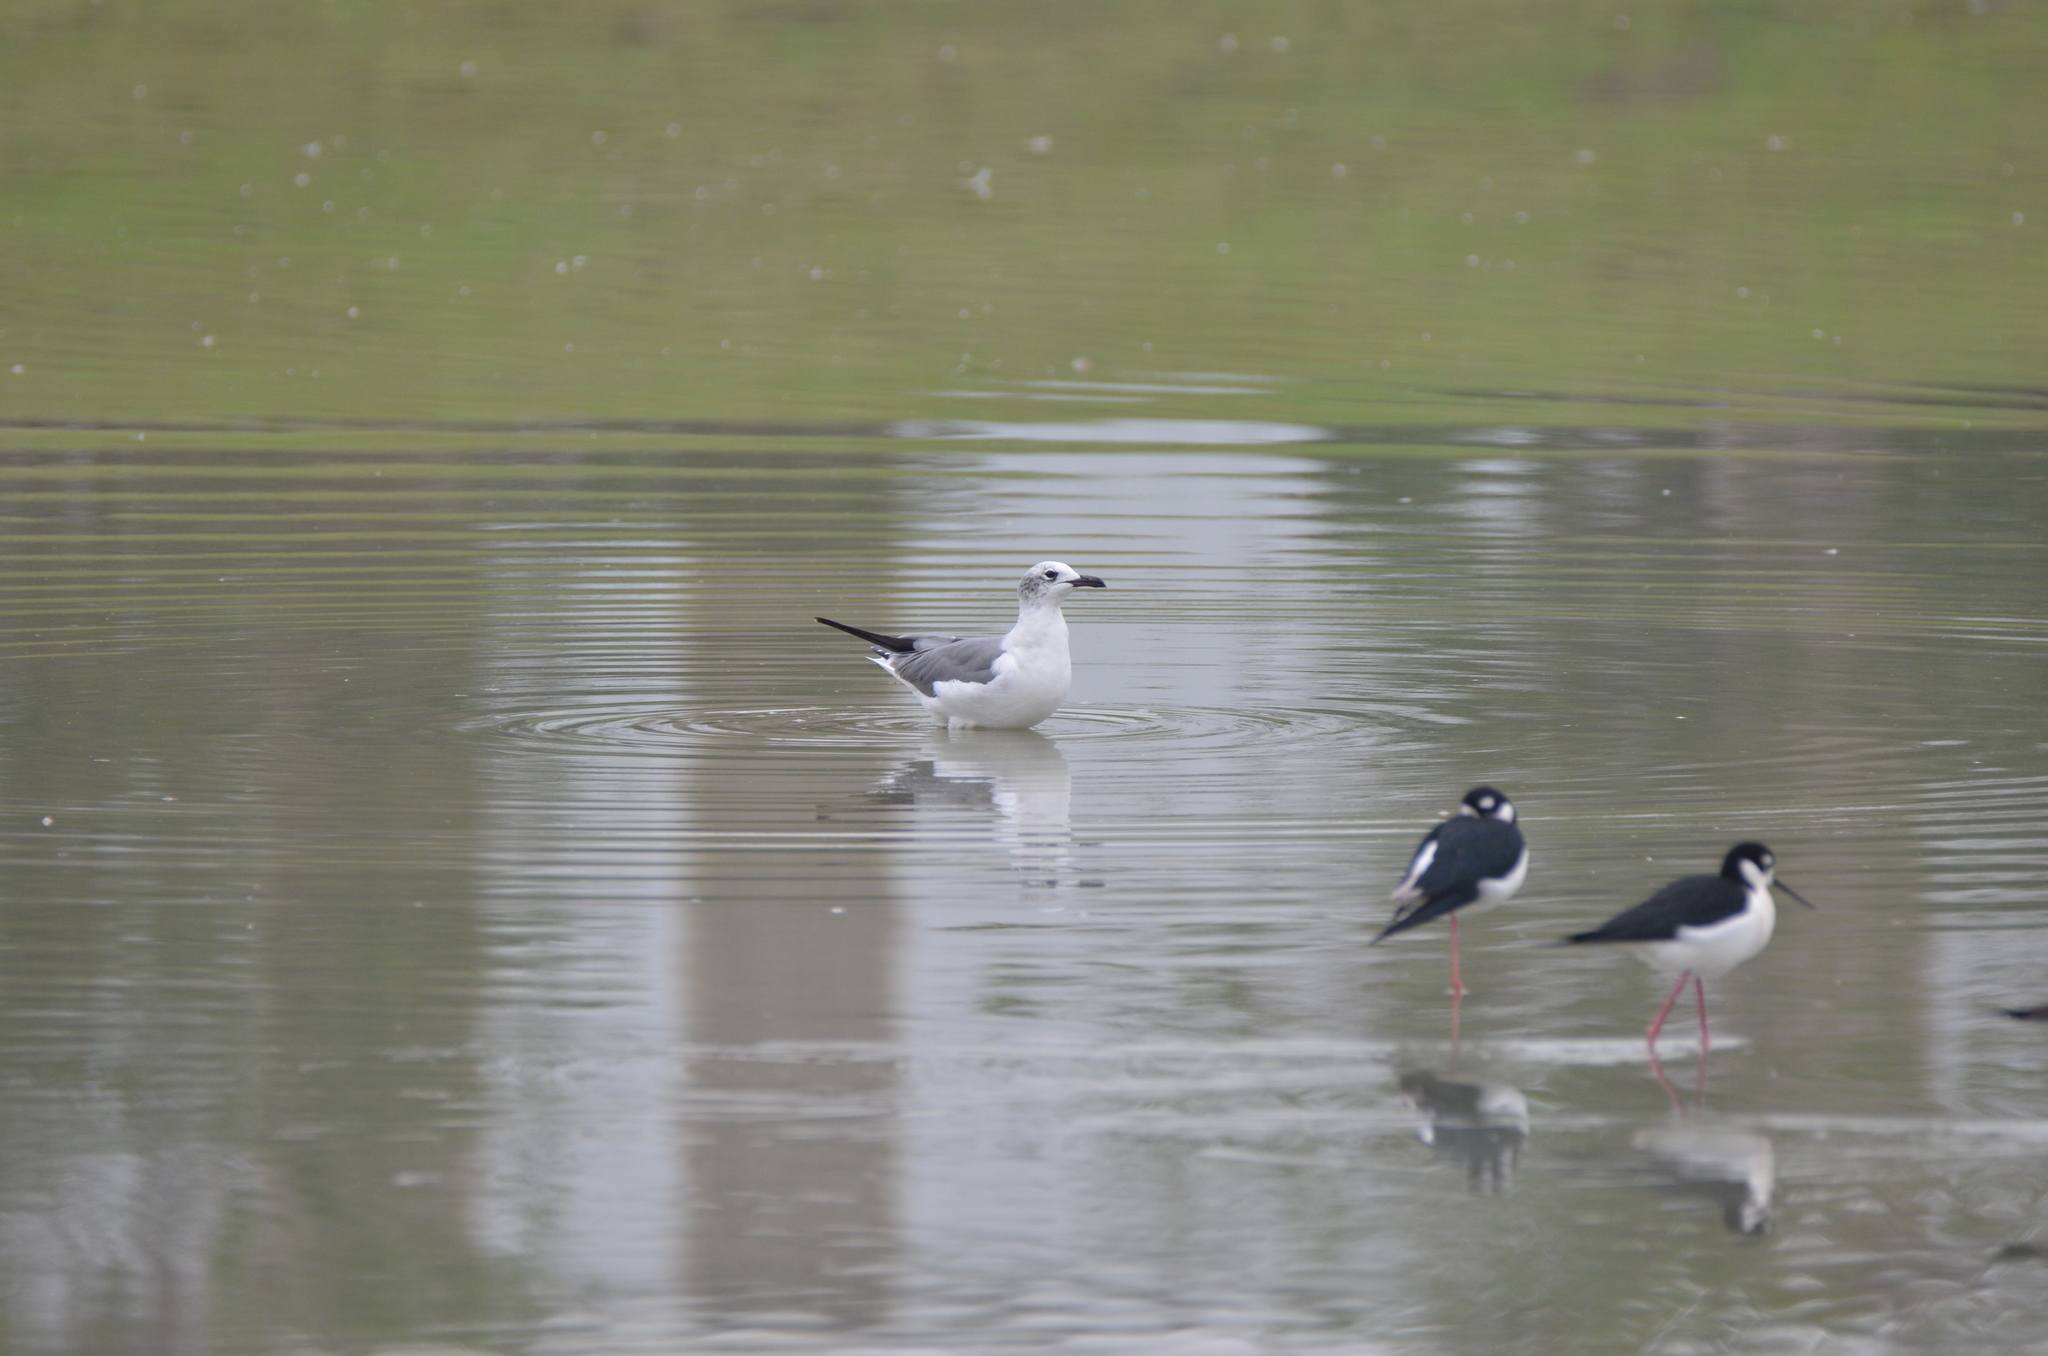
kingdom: Animalia
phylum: Chordata
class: Aves
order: Charadriiformes
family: Laridae
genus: Leucophaeus
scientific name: Leucophaeus atricilla
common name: Laughing gull
